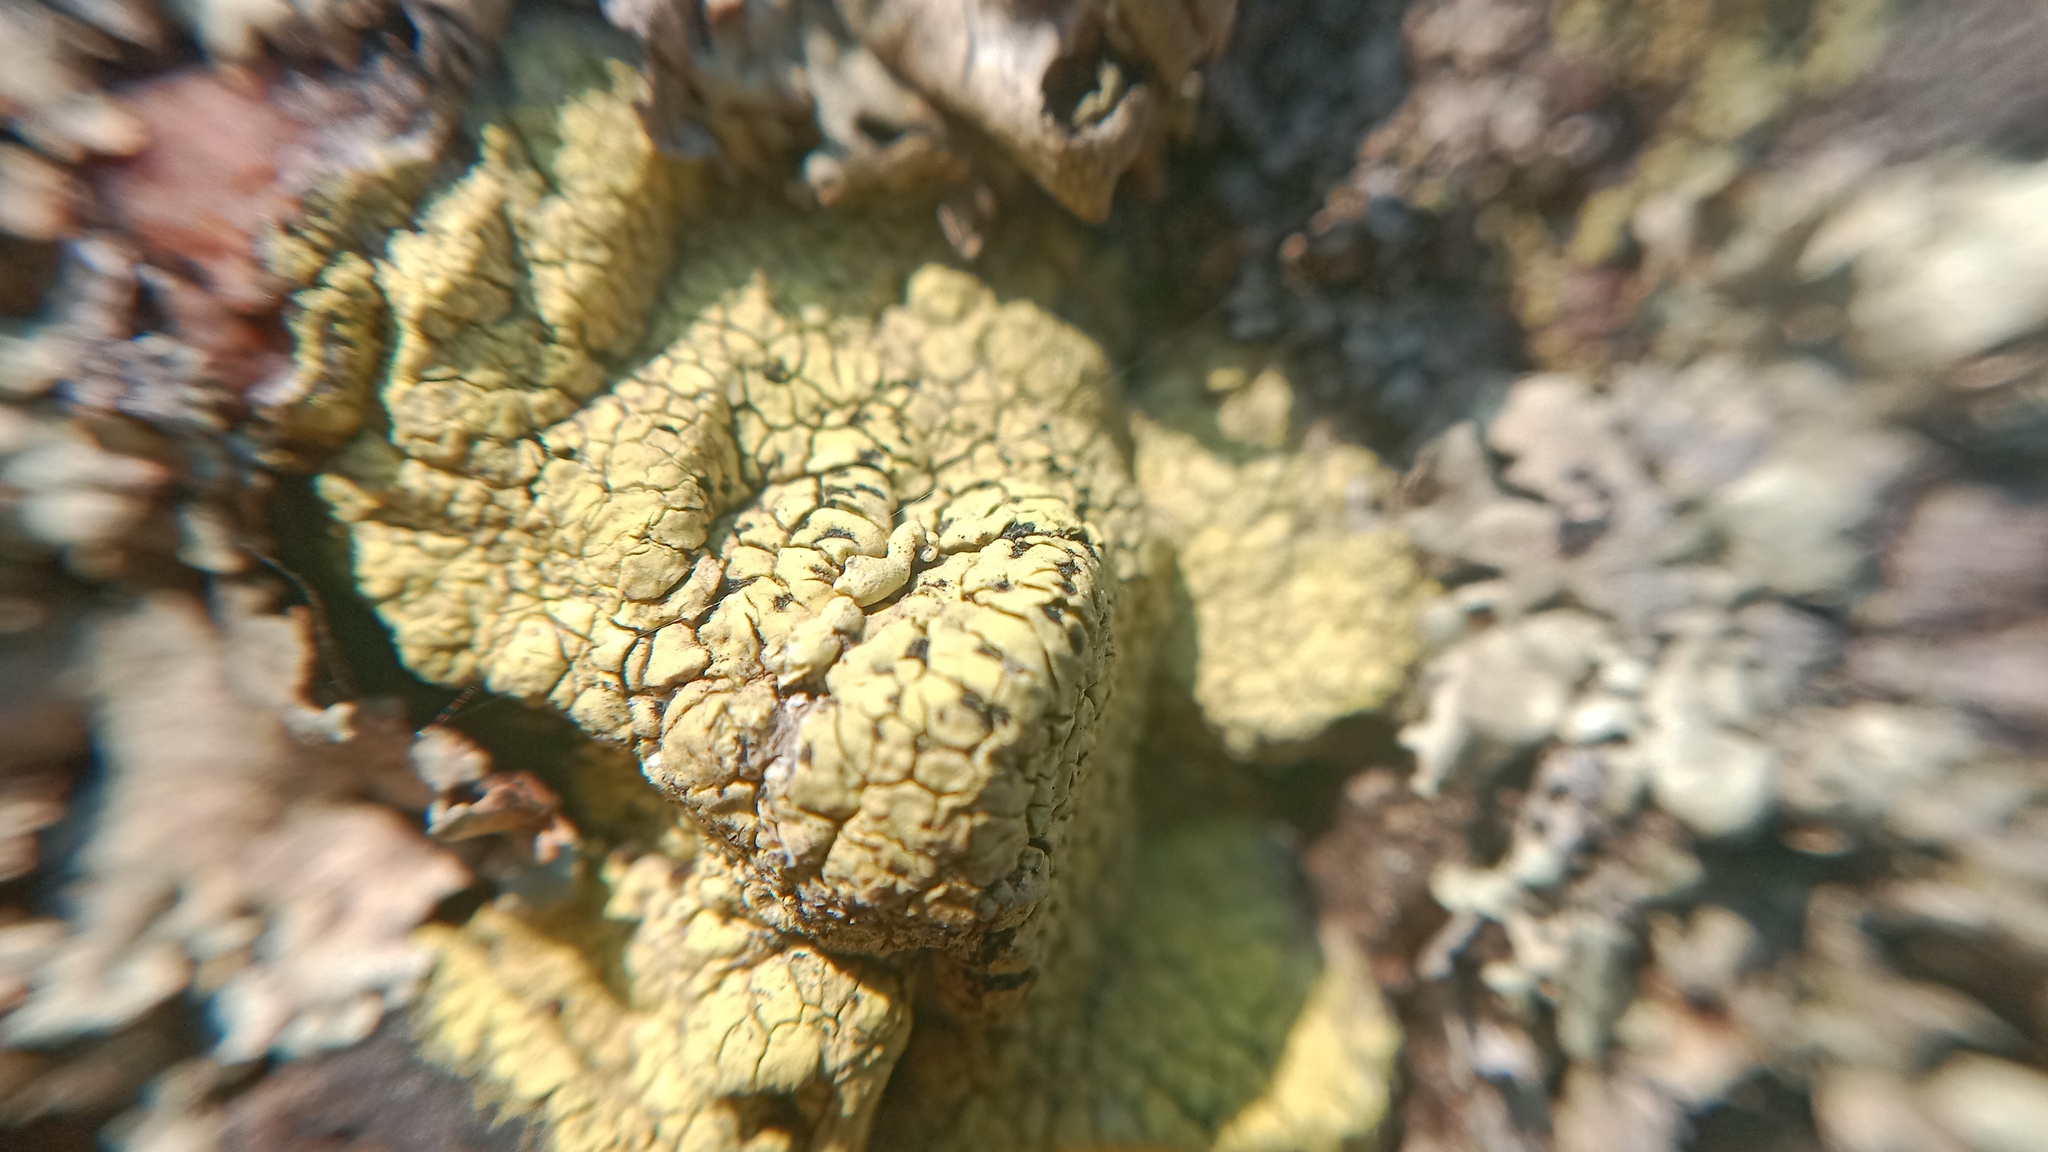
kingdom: Fungi
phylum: Ascomycota
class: Lecanoromycetes
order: Rhizocarpales
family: Rhizocarpaceae
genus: Rhizocarpon
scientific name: Rhizocarpon geographicum
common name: Yellow map lichen
